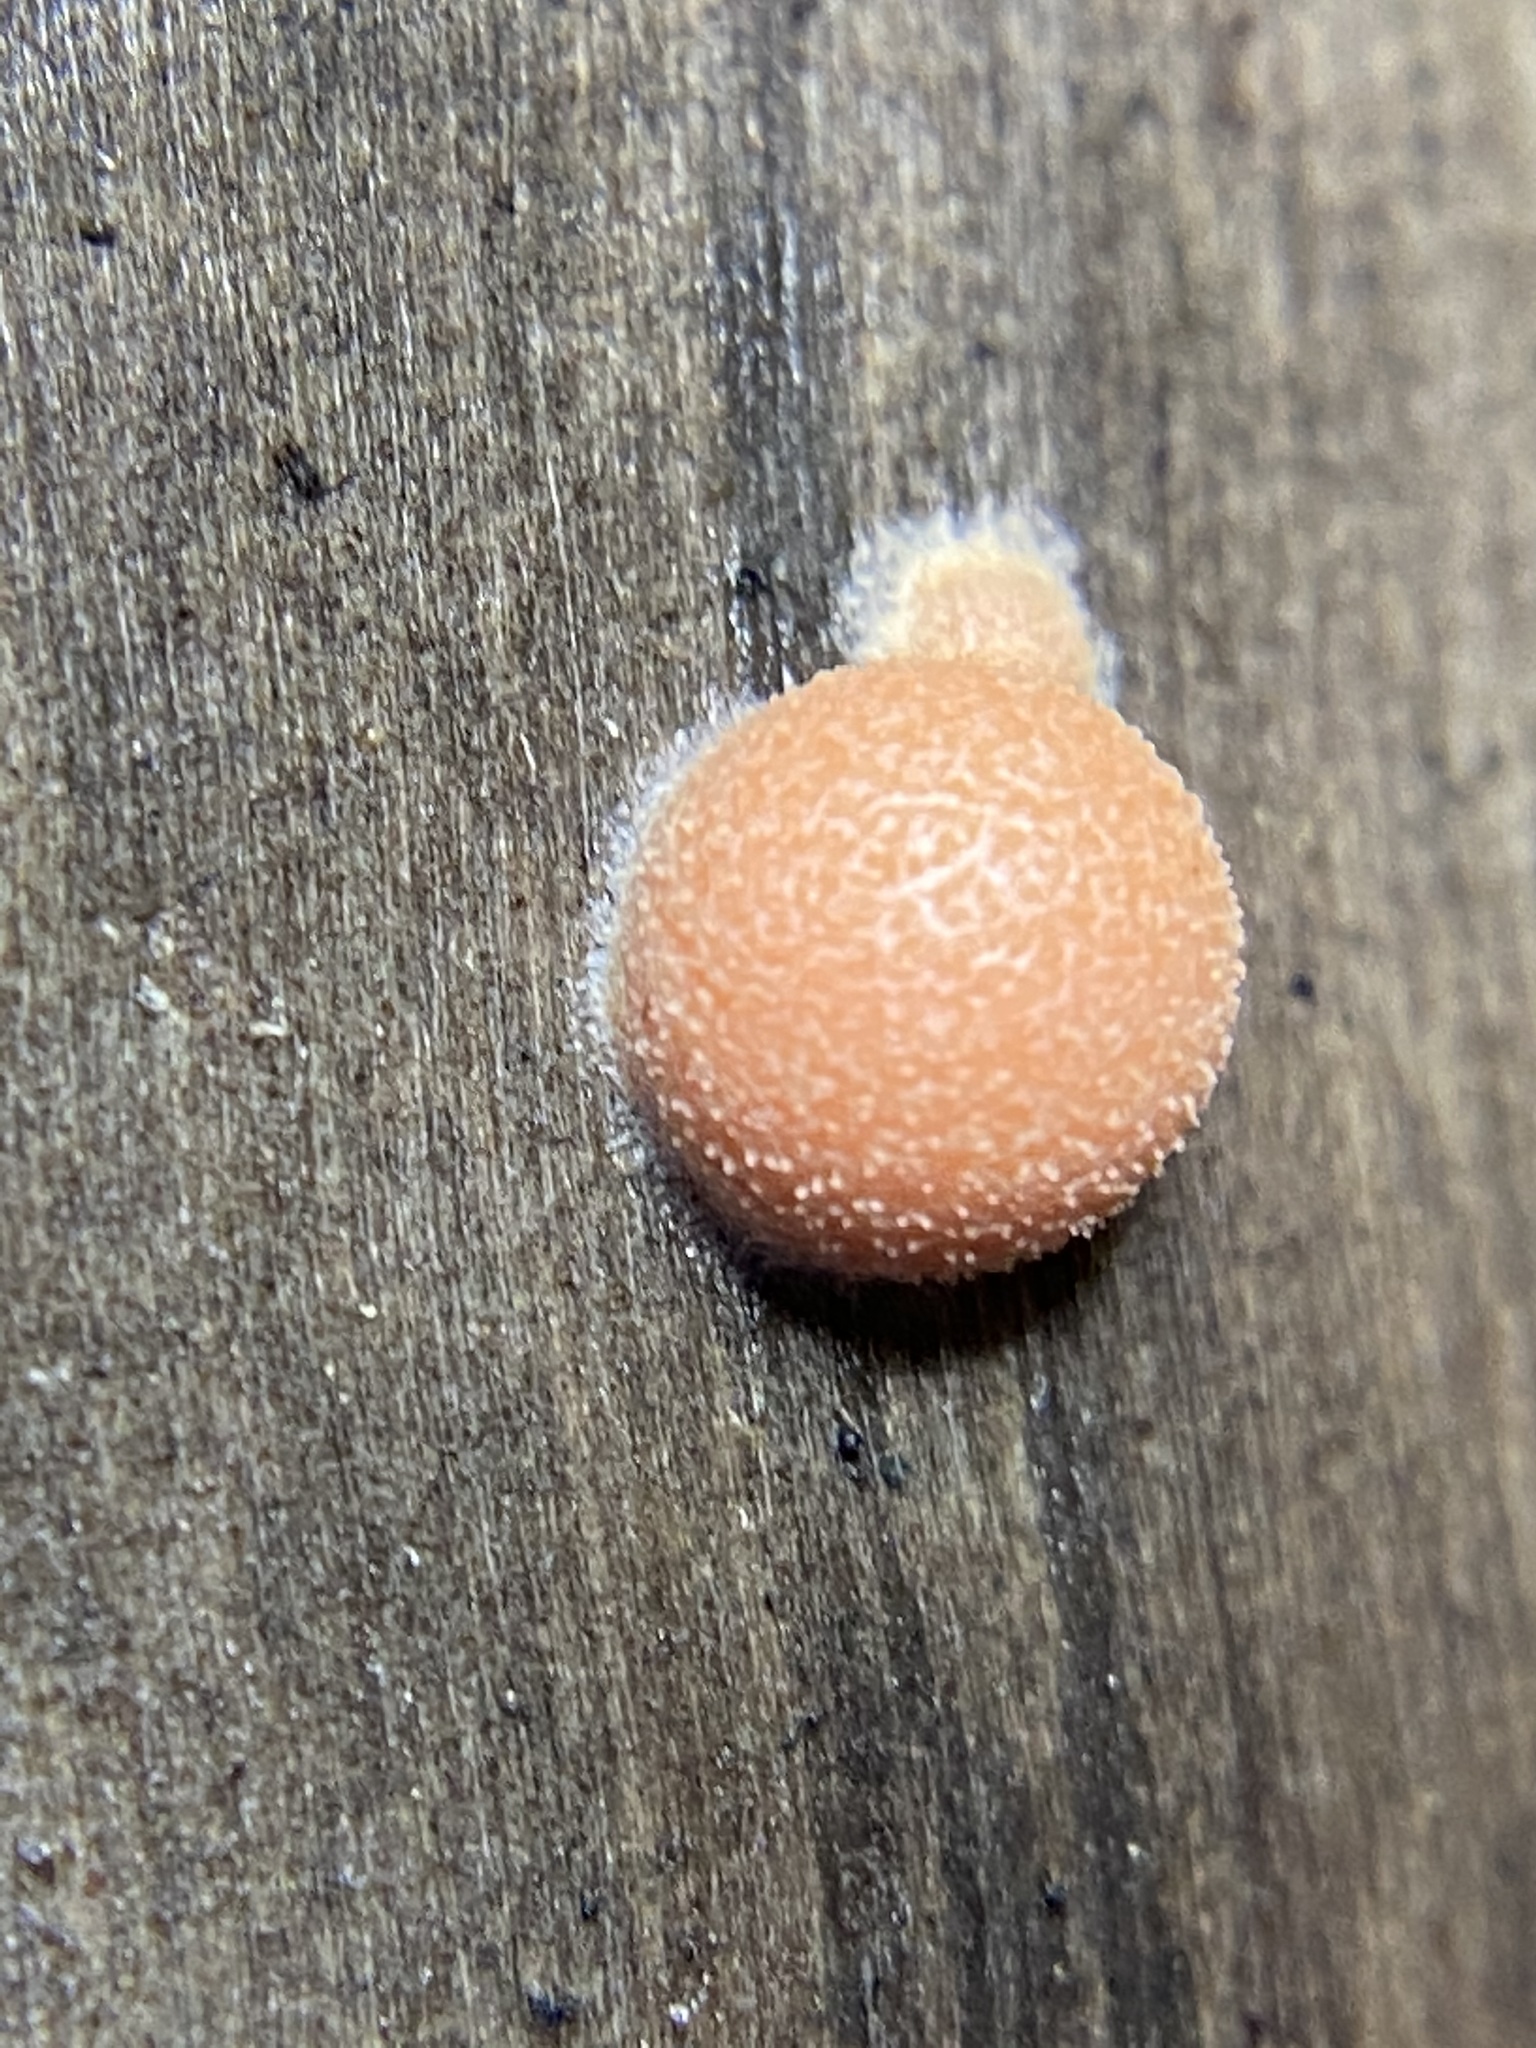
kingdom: Protozoa
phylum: Mycetozoa
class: Myxomycetes
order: Cribrariales
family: Tubiferaceae
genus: Lycogala
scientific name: Lycogala epidendrum
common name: Wolf's milk
